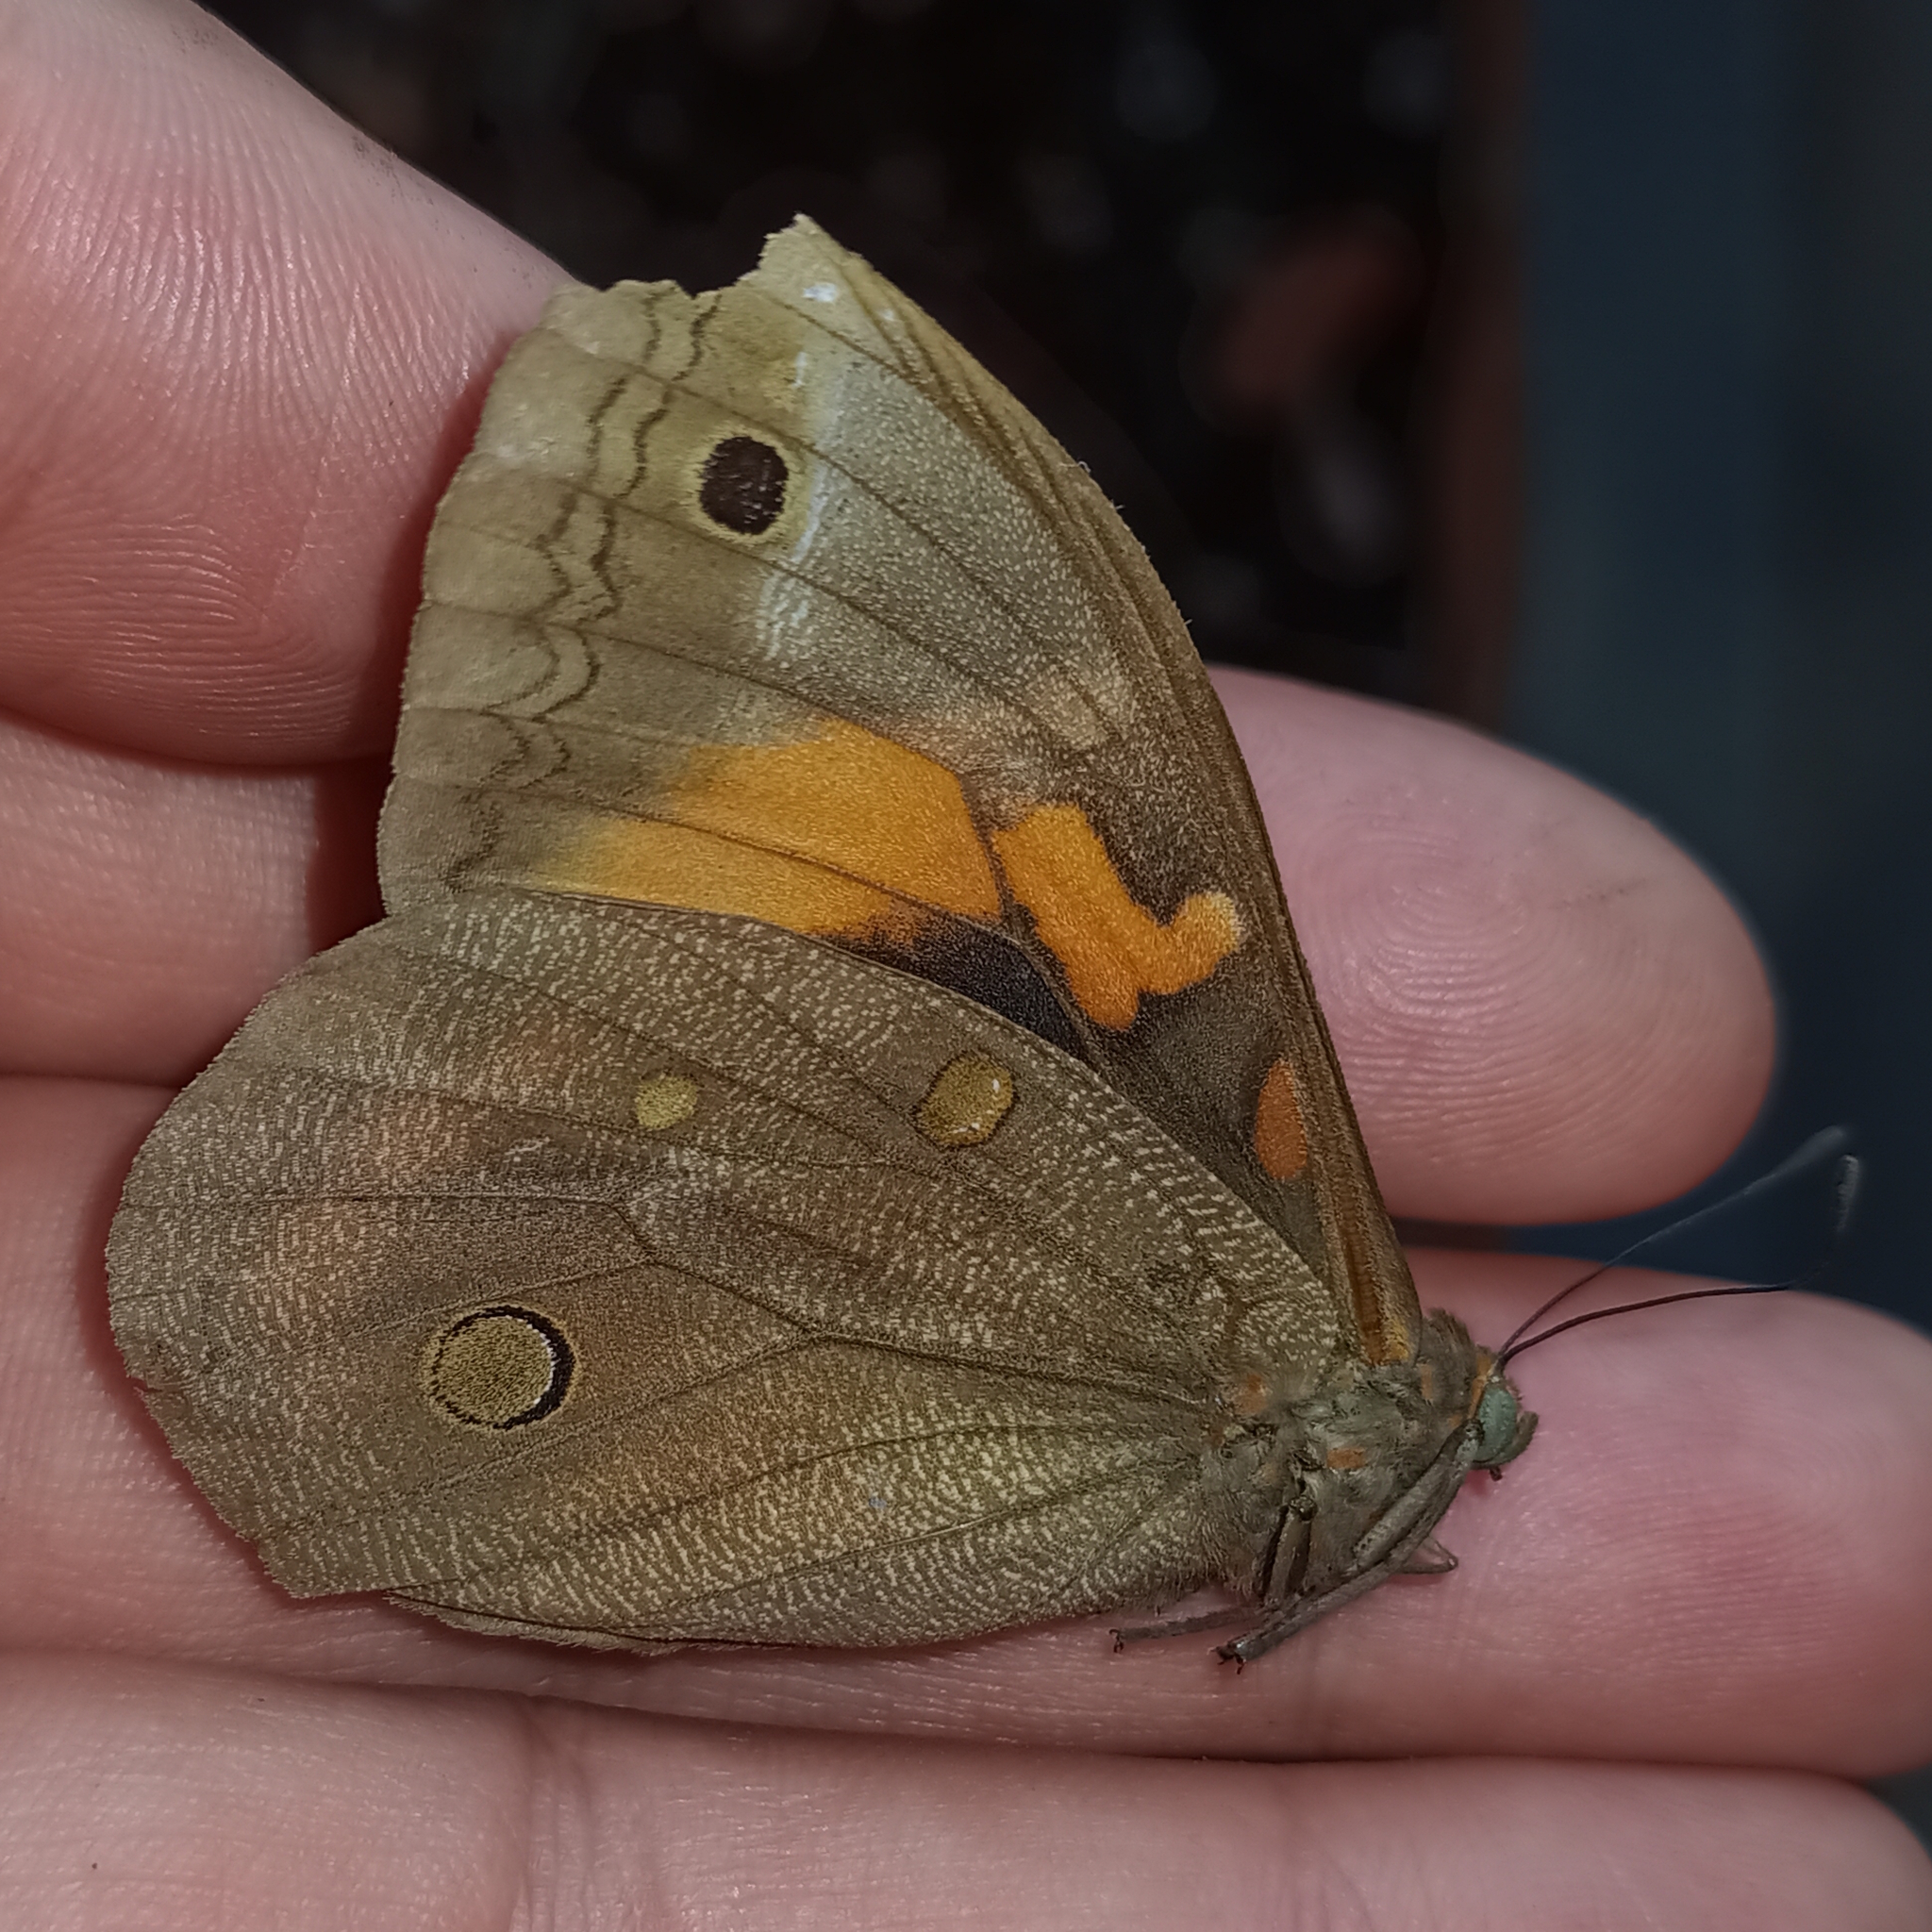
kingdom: Animalia
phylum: Arthropoda
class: Insecta
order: Lepidoptera
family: Nymphalidae
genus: Brassolis
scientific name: Brassolis sophorae
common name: Coconut caterpillar
